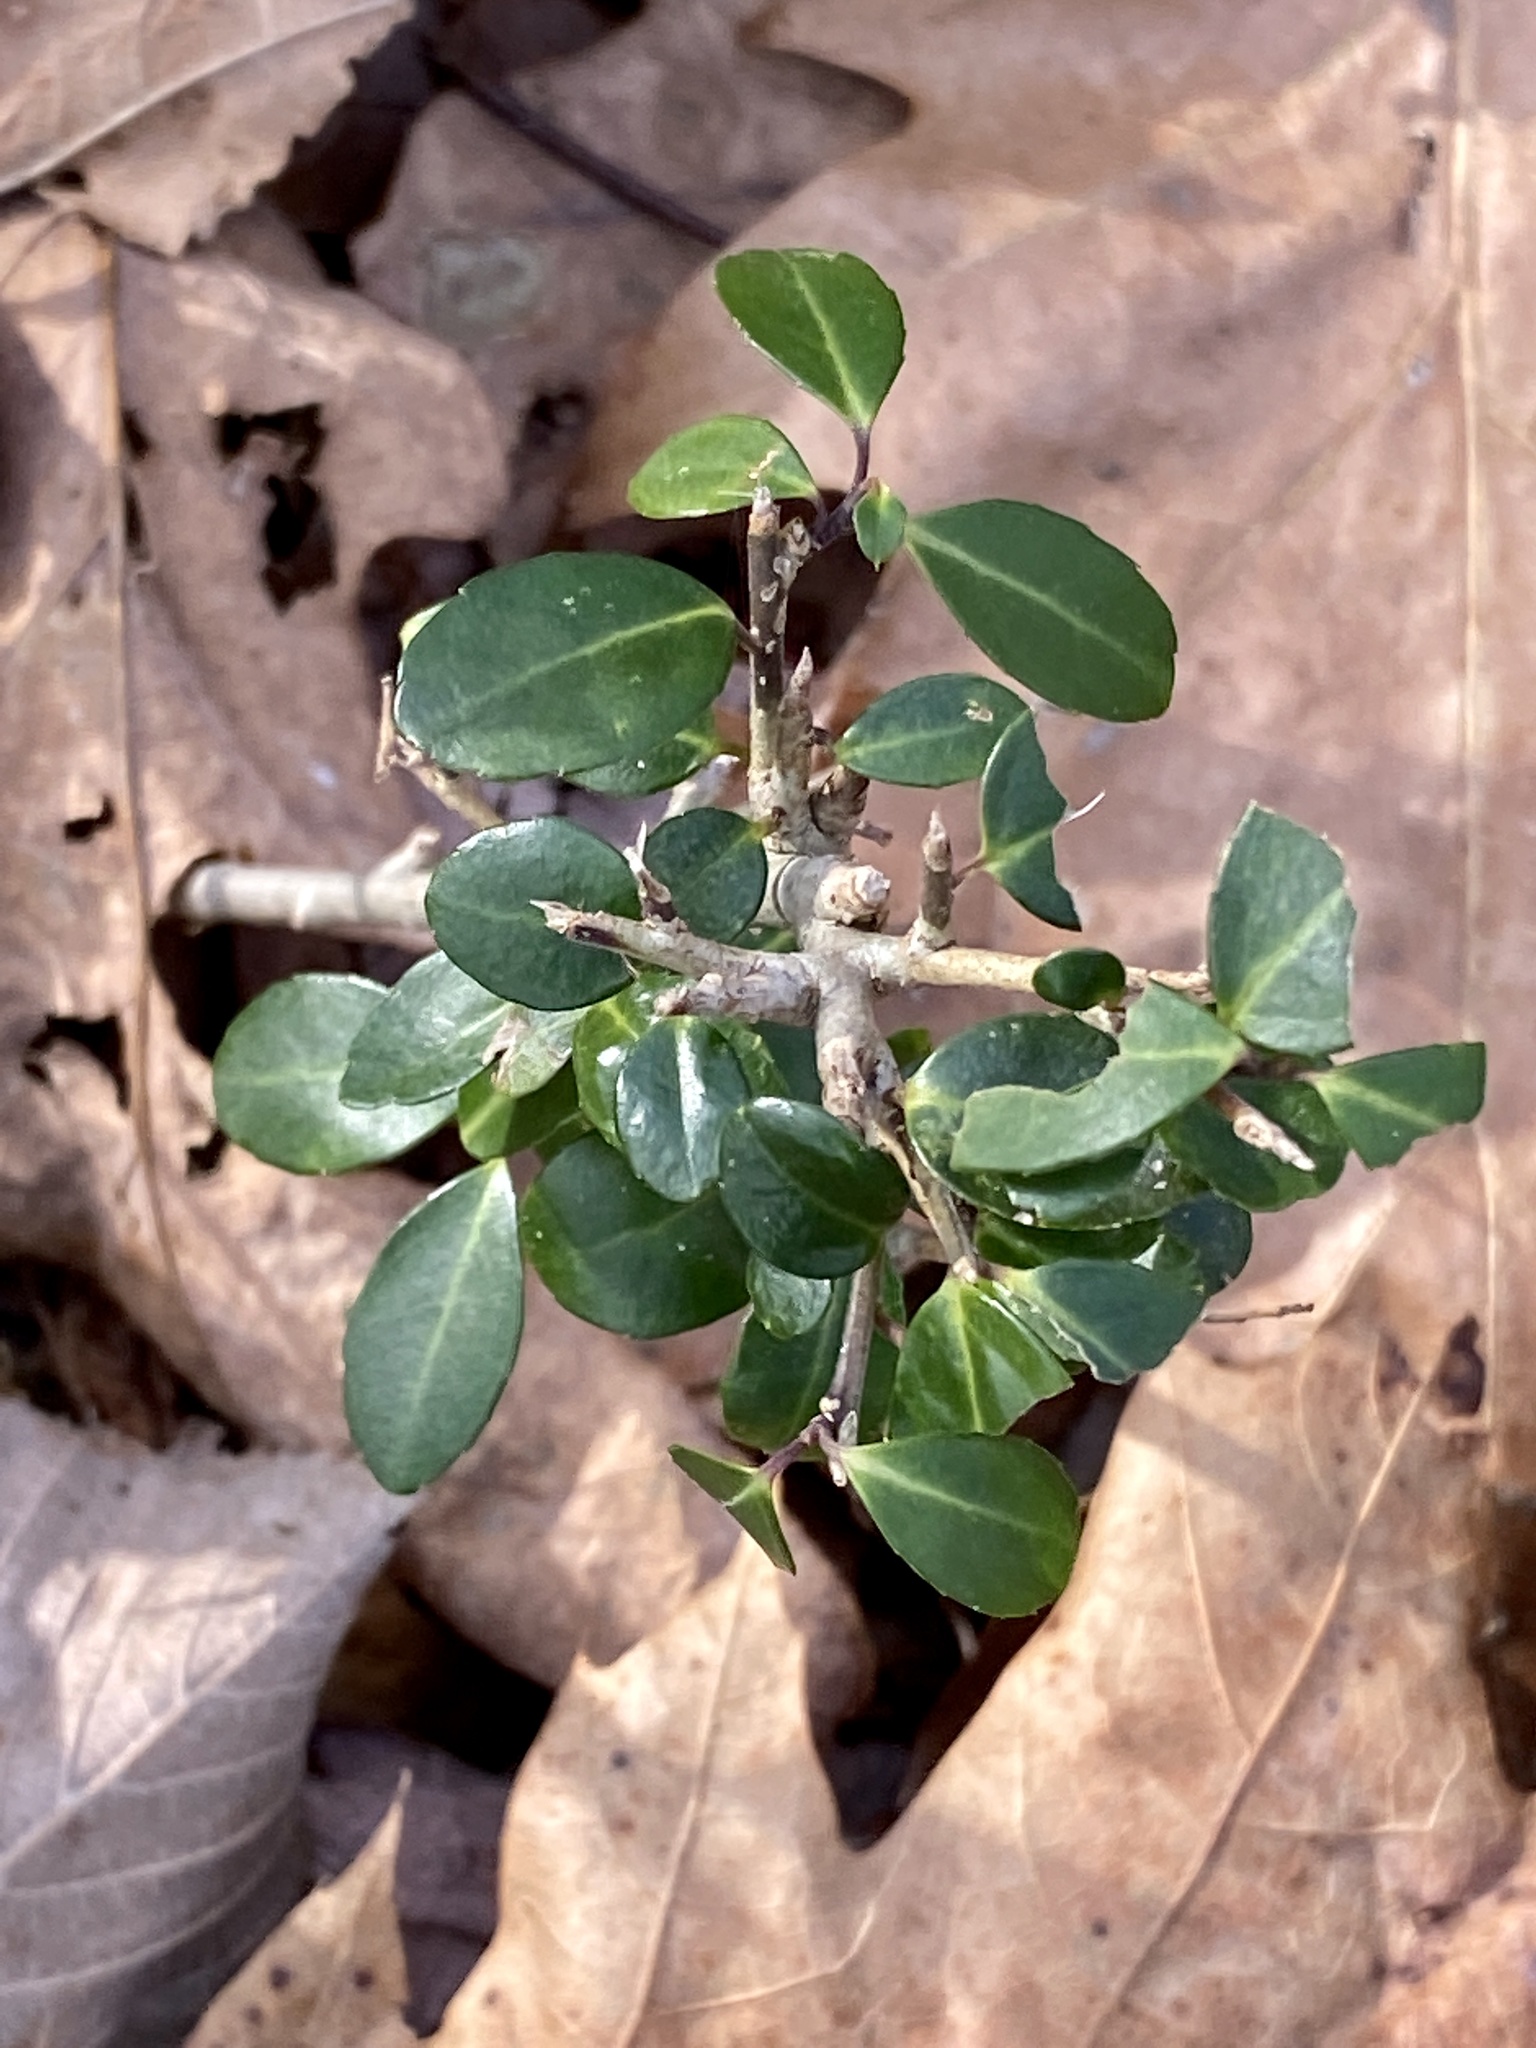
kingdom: Plantae
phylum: Tracheophyta
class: Magnoliopsida
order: Aquifoliales
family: Aquifoliaceae
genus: Ilex
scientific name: Ilex crenata
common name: Japanese holly
